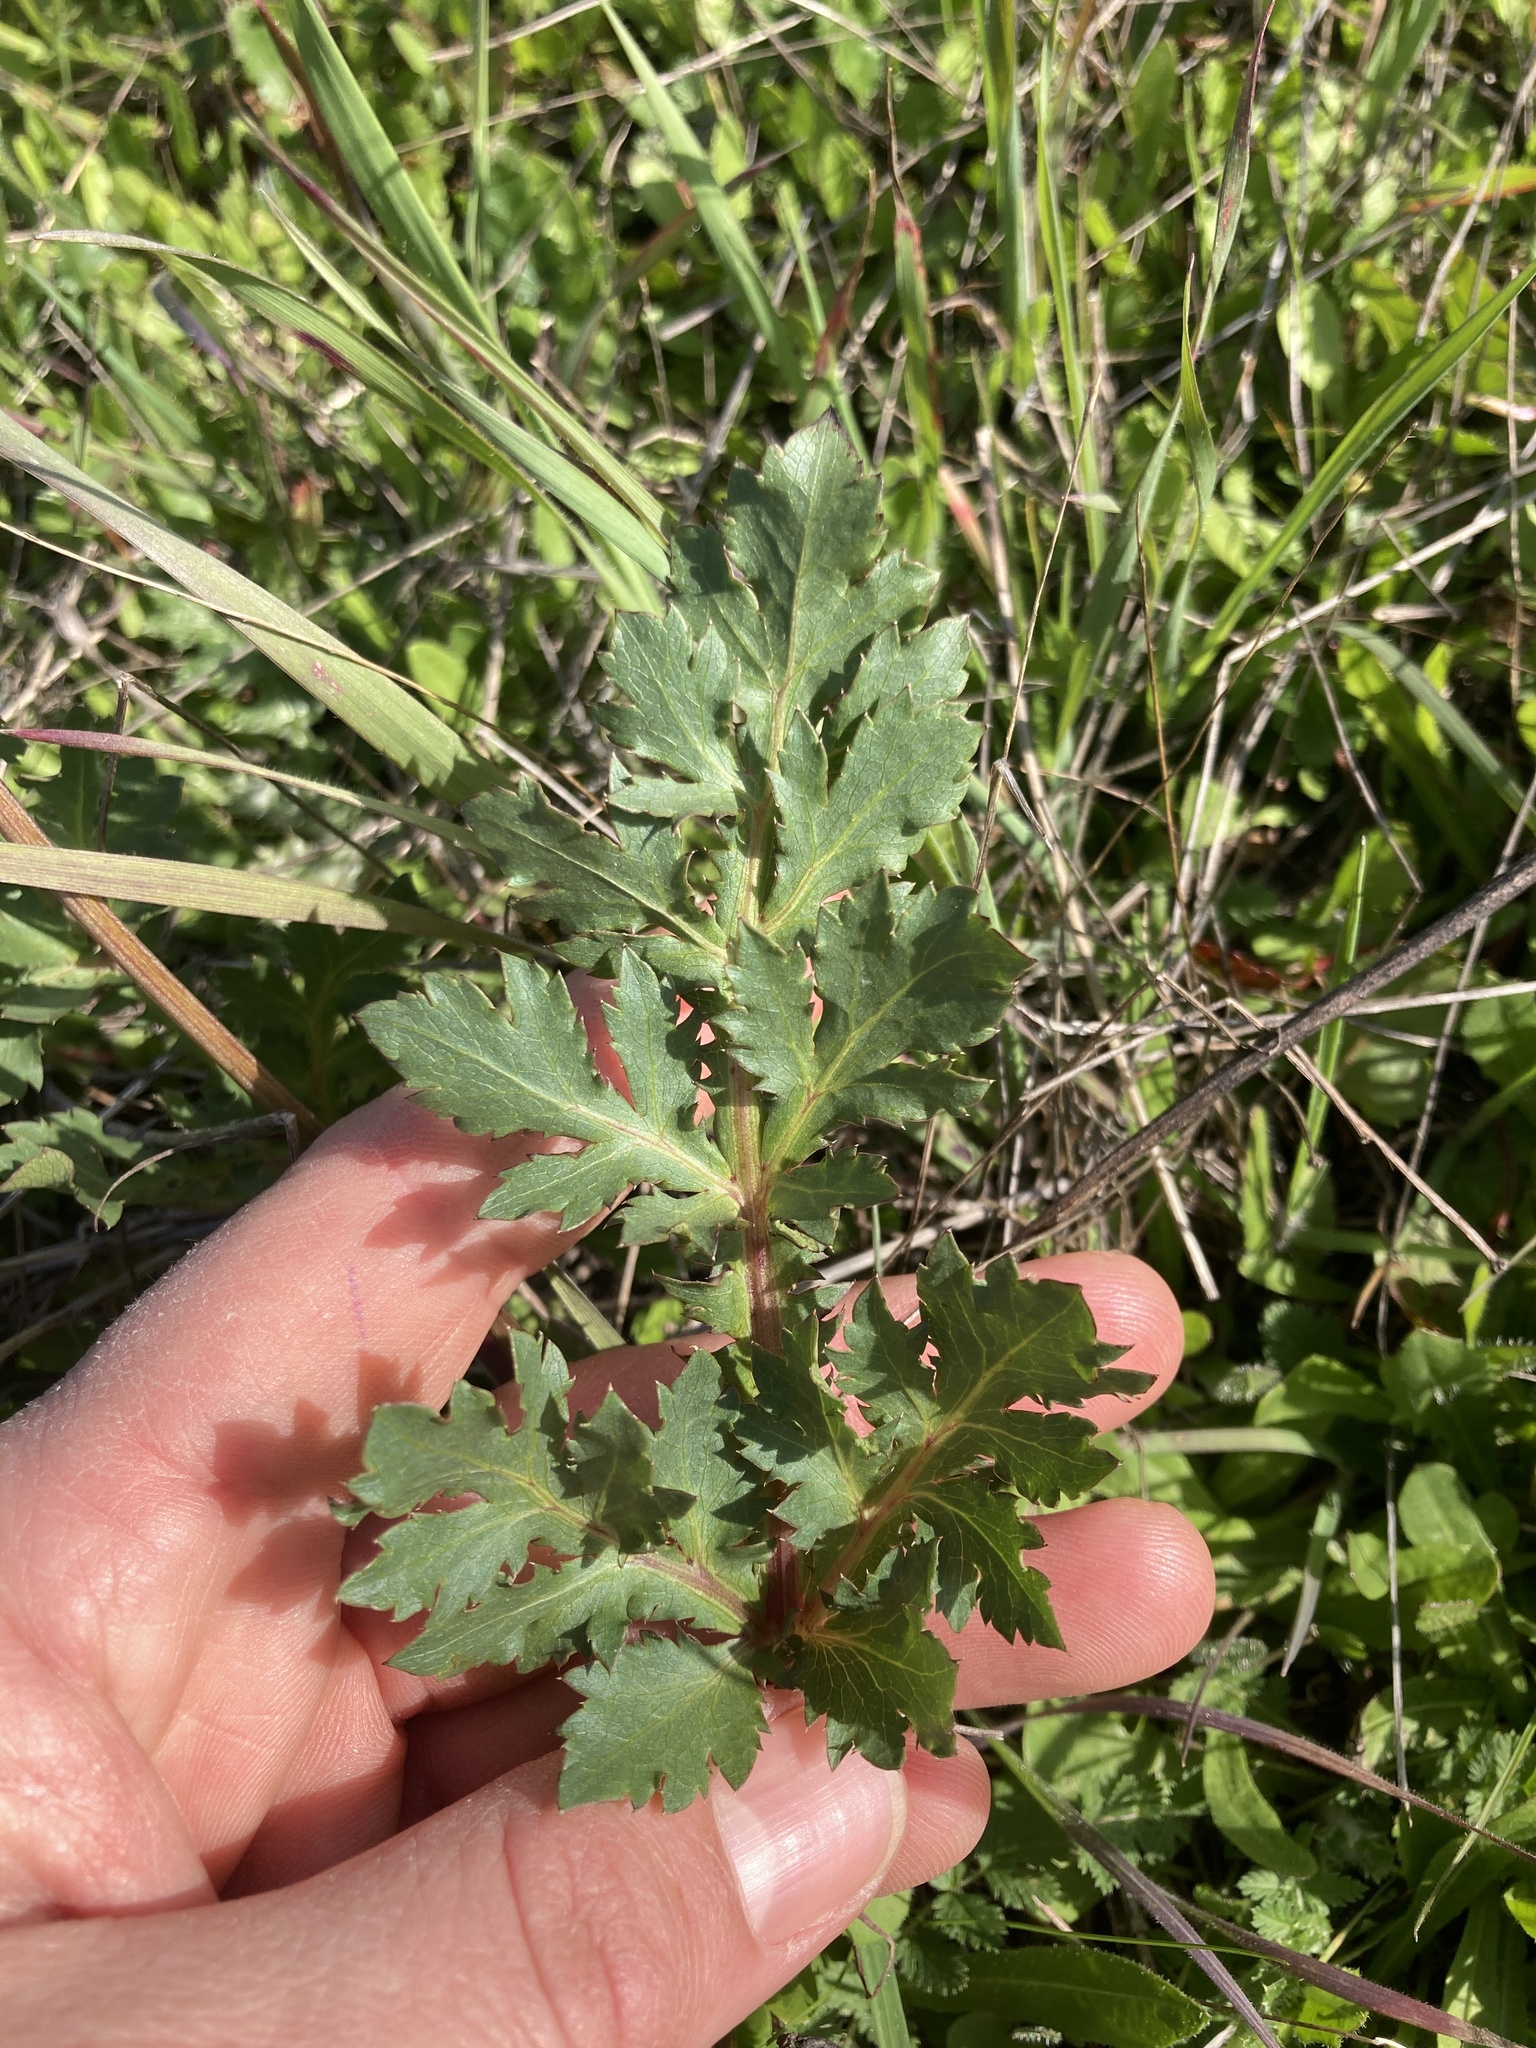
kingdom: Plantae
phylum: Tracheophyta
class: Magnoliopsida
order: Apiales
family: Apiaceae
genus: Sanicula
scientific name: Sanicula bipinnatifida
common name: Shoe-buttons
